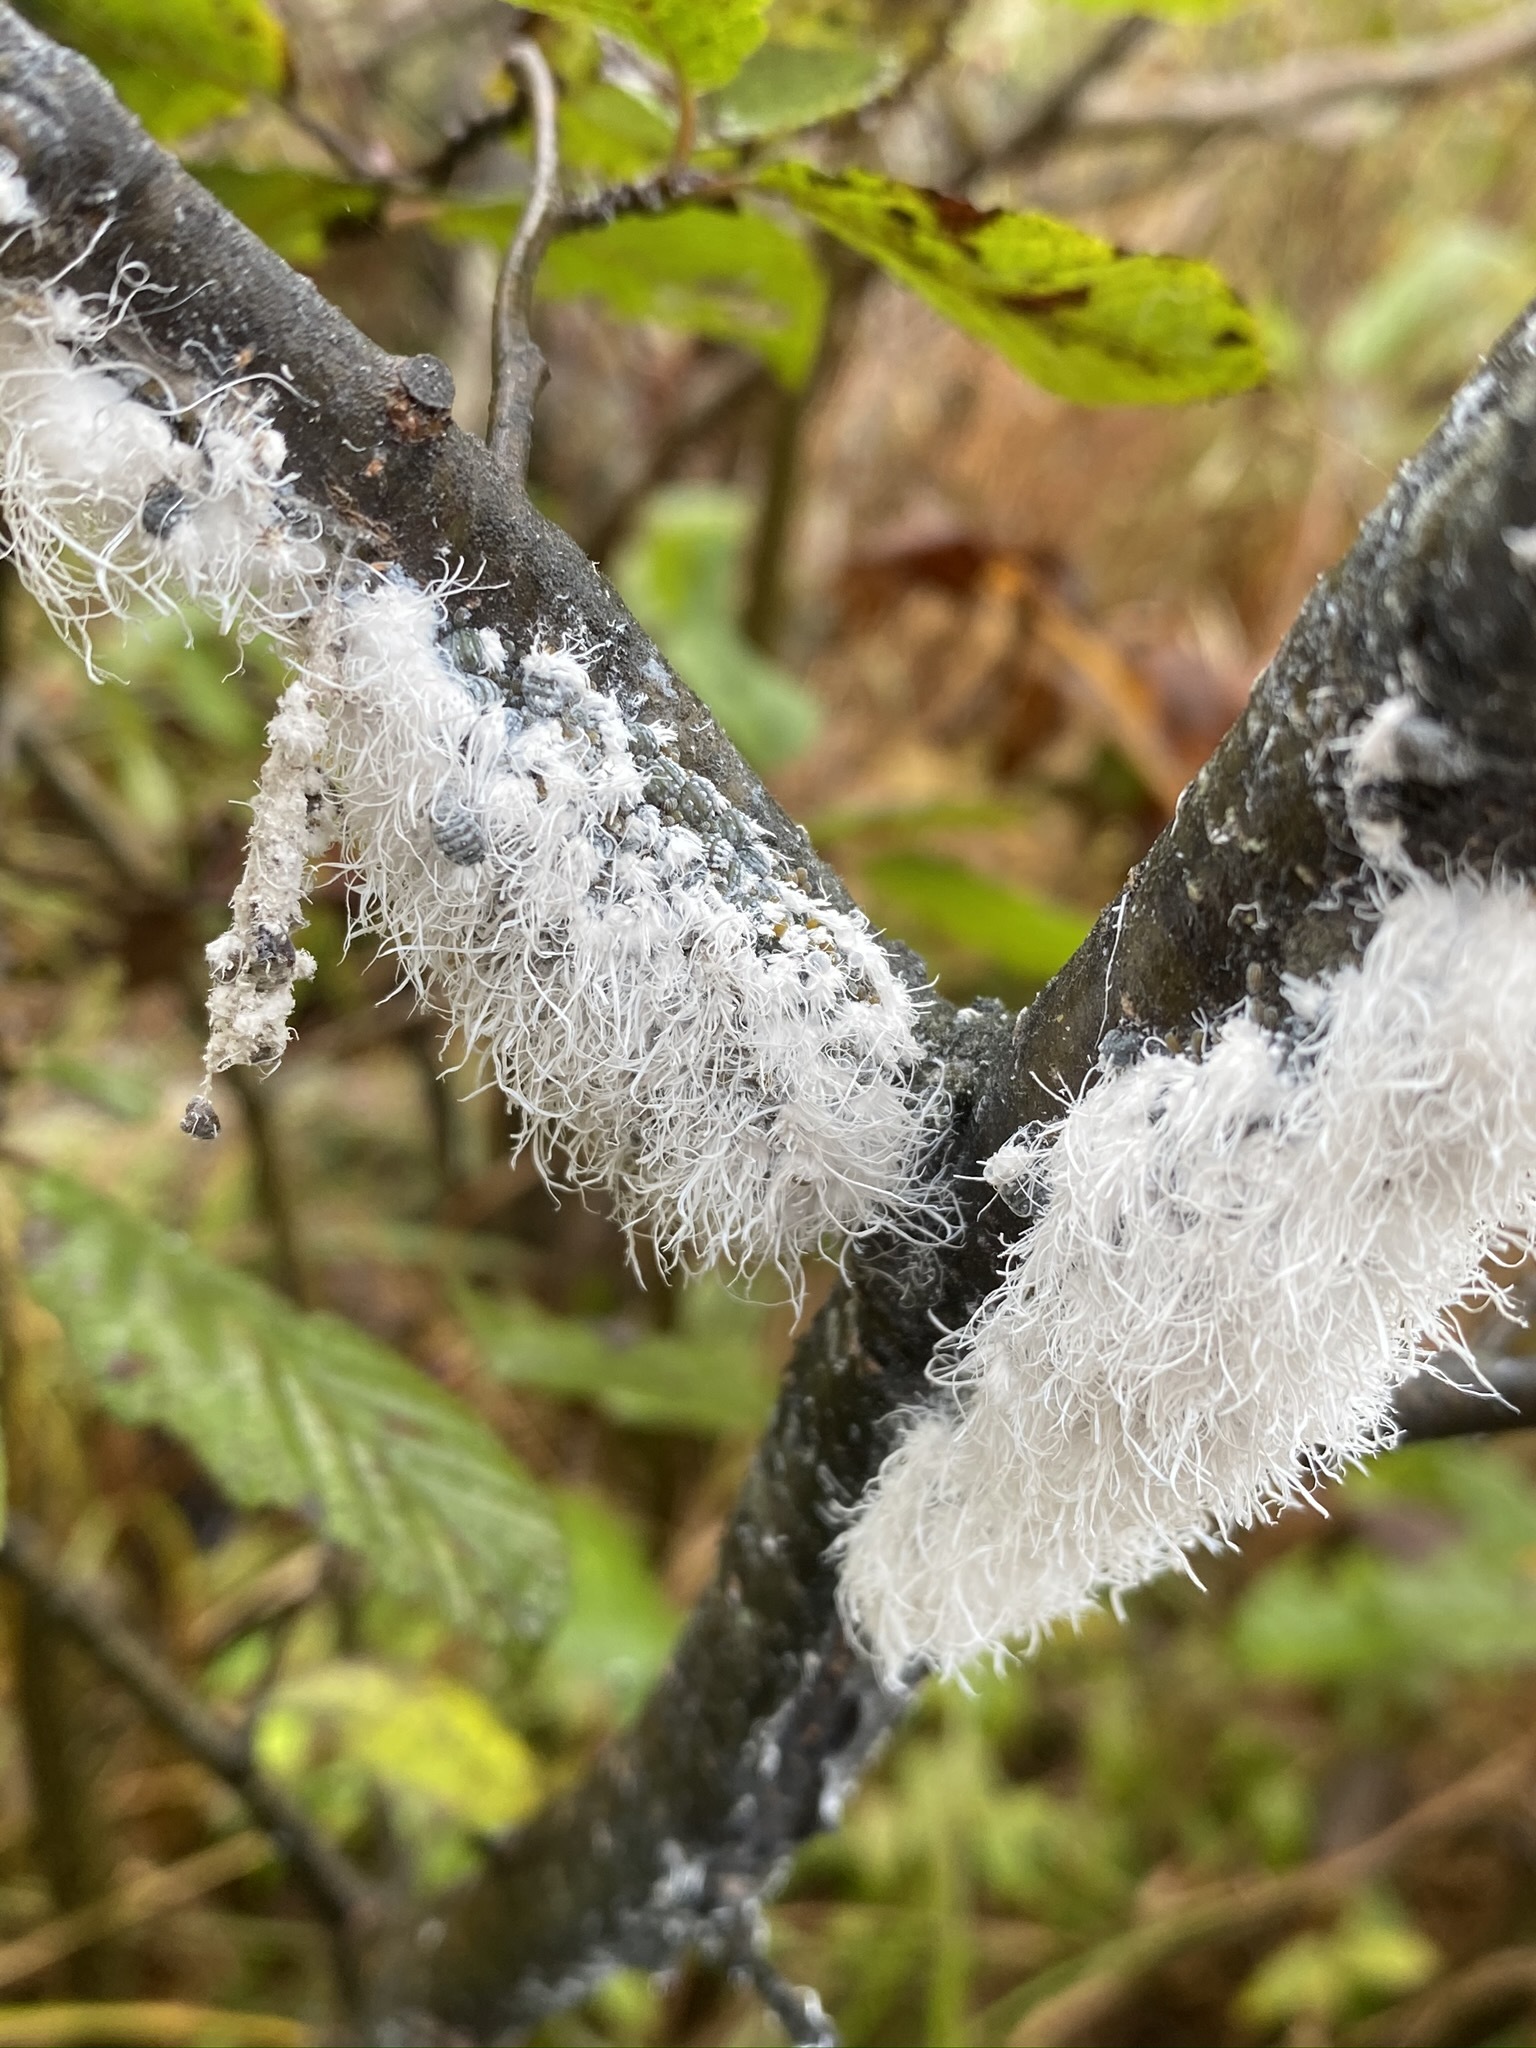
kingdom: Animalia
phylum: Arthropoda
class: Insecta
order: Hemiptera
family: Aphididae
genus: Prociphilus
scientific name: Prociphilus tessellatus
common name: Woolly alder aphid
